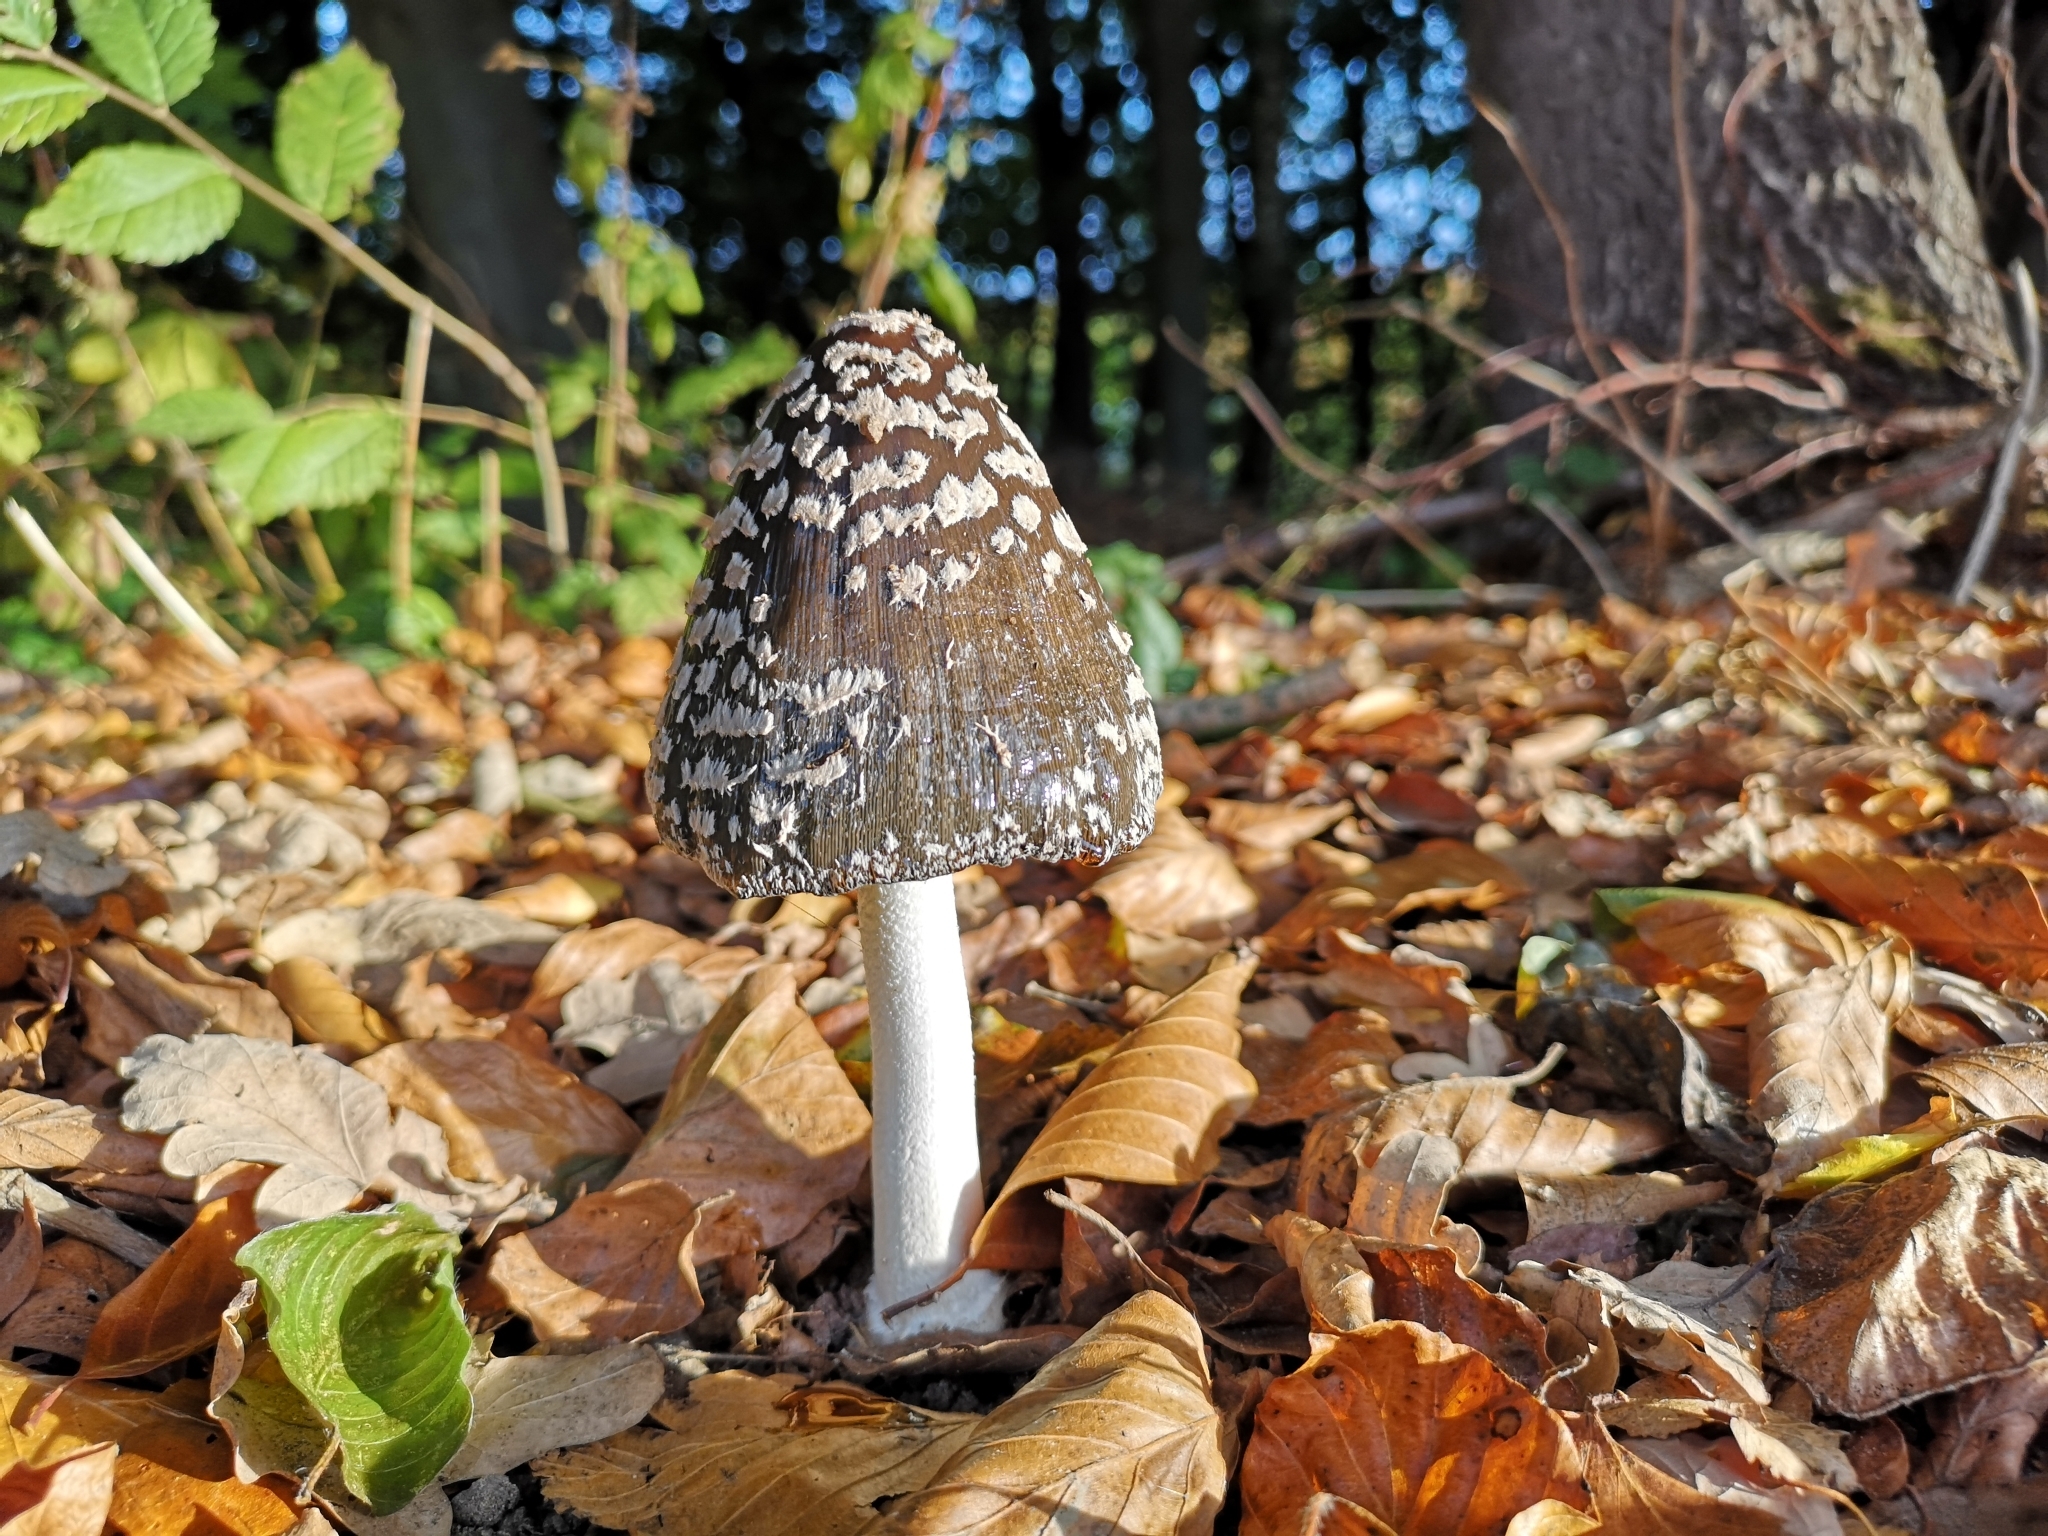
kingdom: Fungi
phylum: Basidiomycota
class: Agaricomycetes
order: Agaricales
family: Psathyrellaceae
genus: Coprinopsis
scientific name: Coprinopsis picacea
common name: Magpie inkcap
